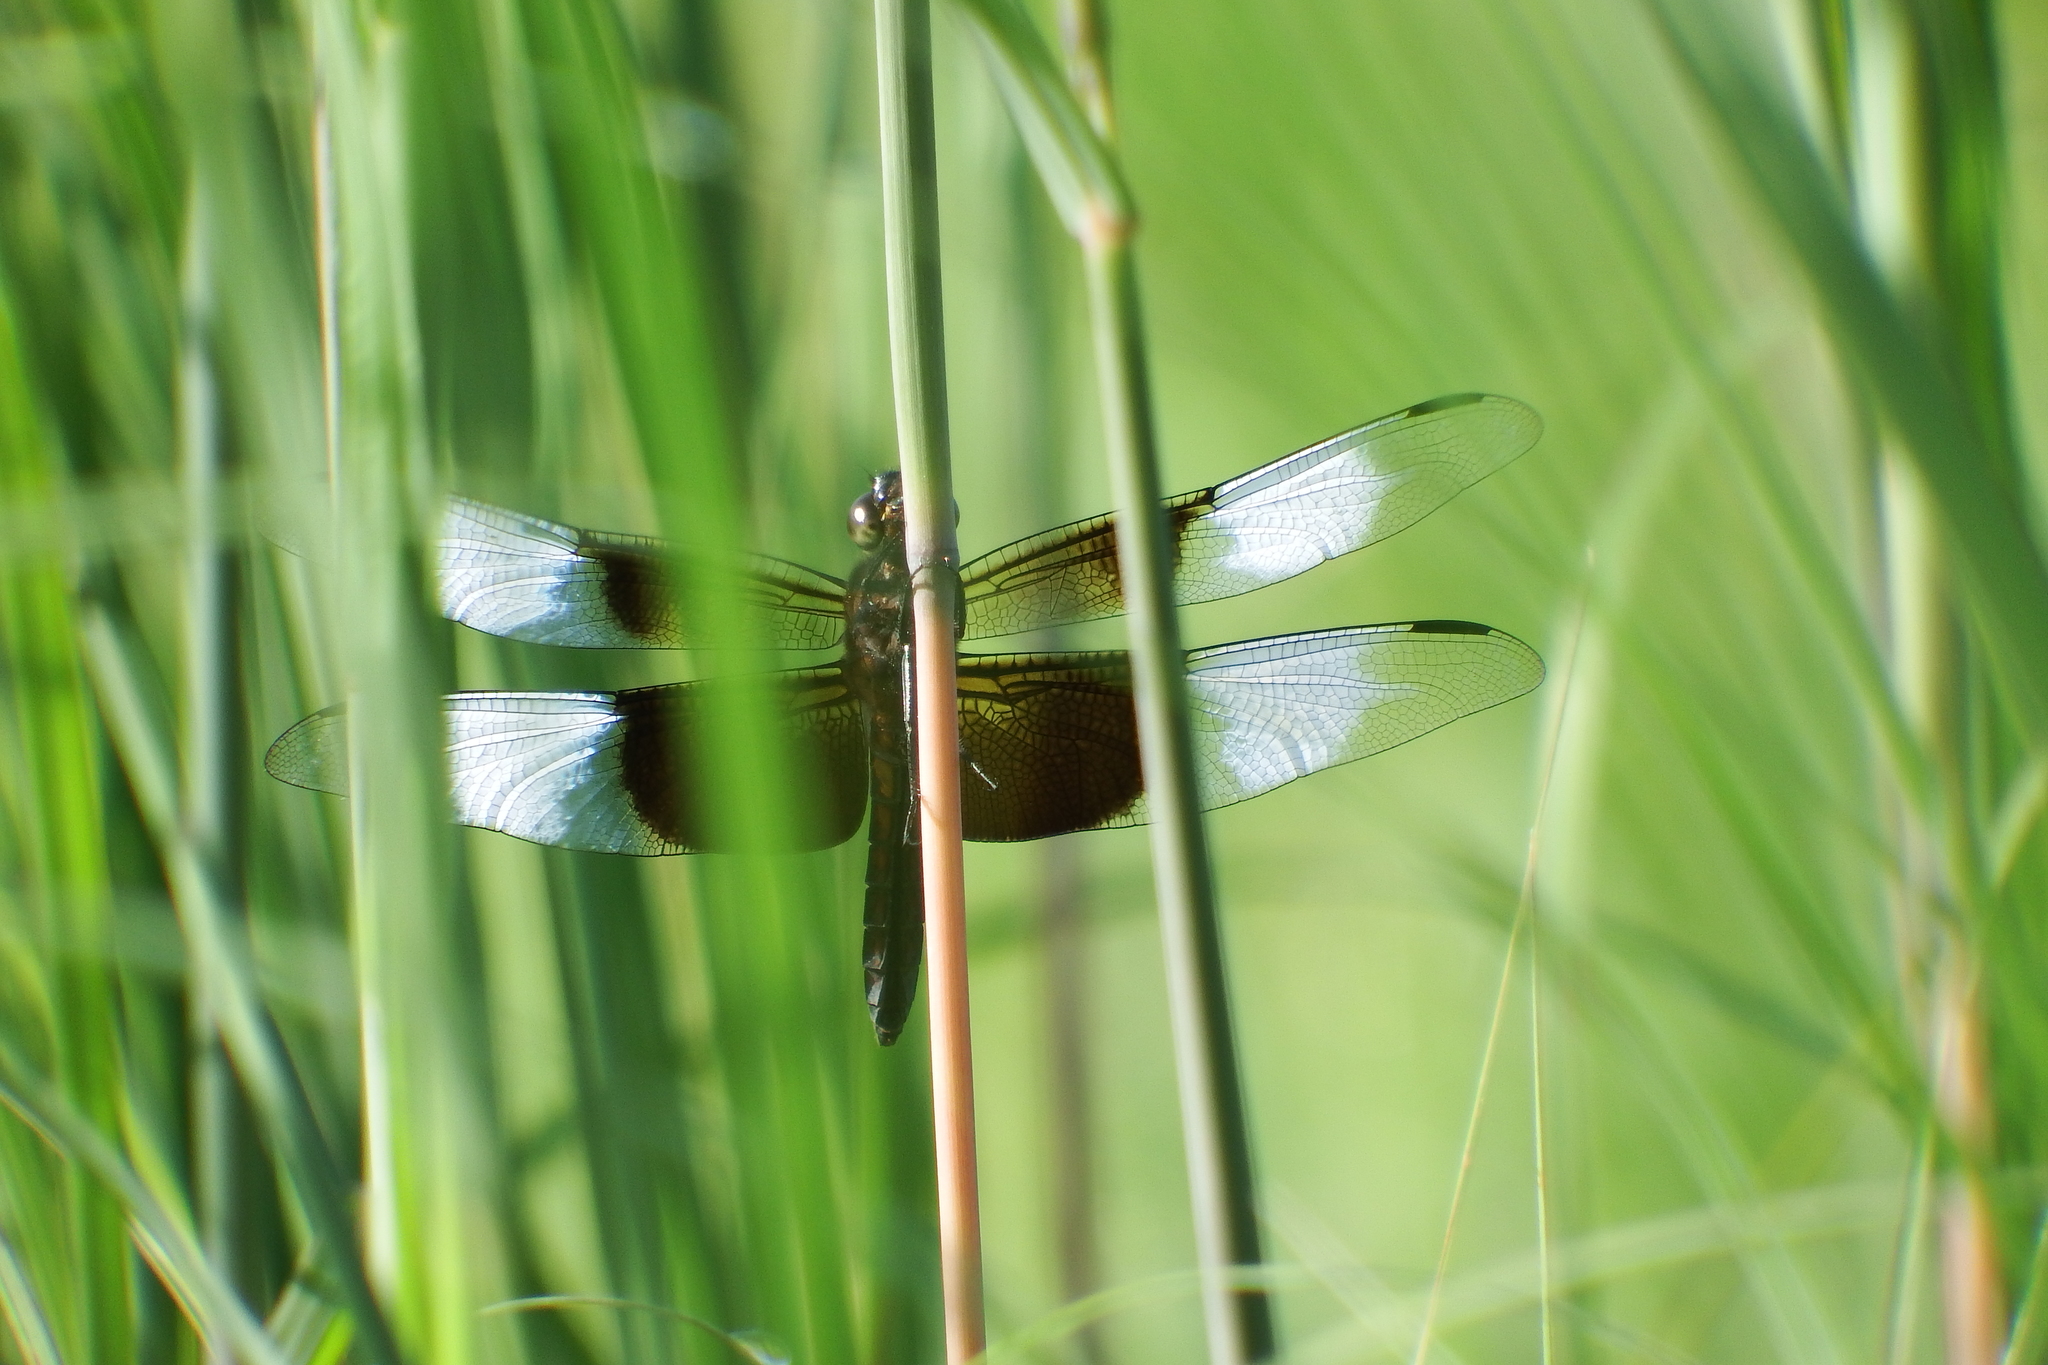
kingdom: Animalia
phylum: Arthropoda
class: Insecta
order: Odonata
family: Libellulidae
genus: Libellula
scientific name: Libellula luctuosa
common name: Widow skimmer
